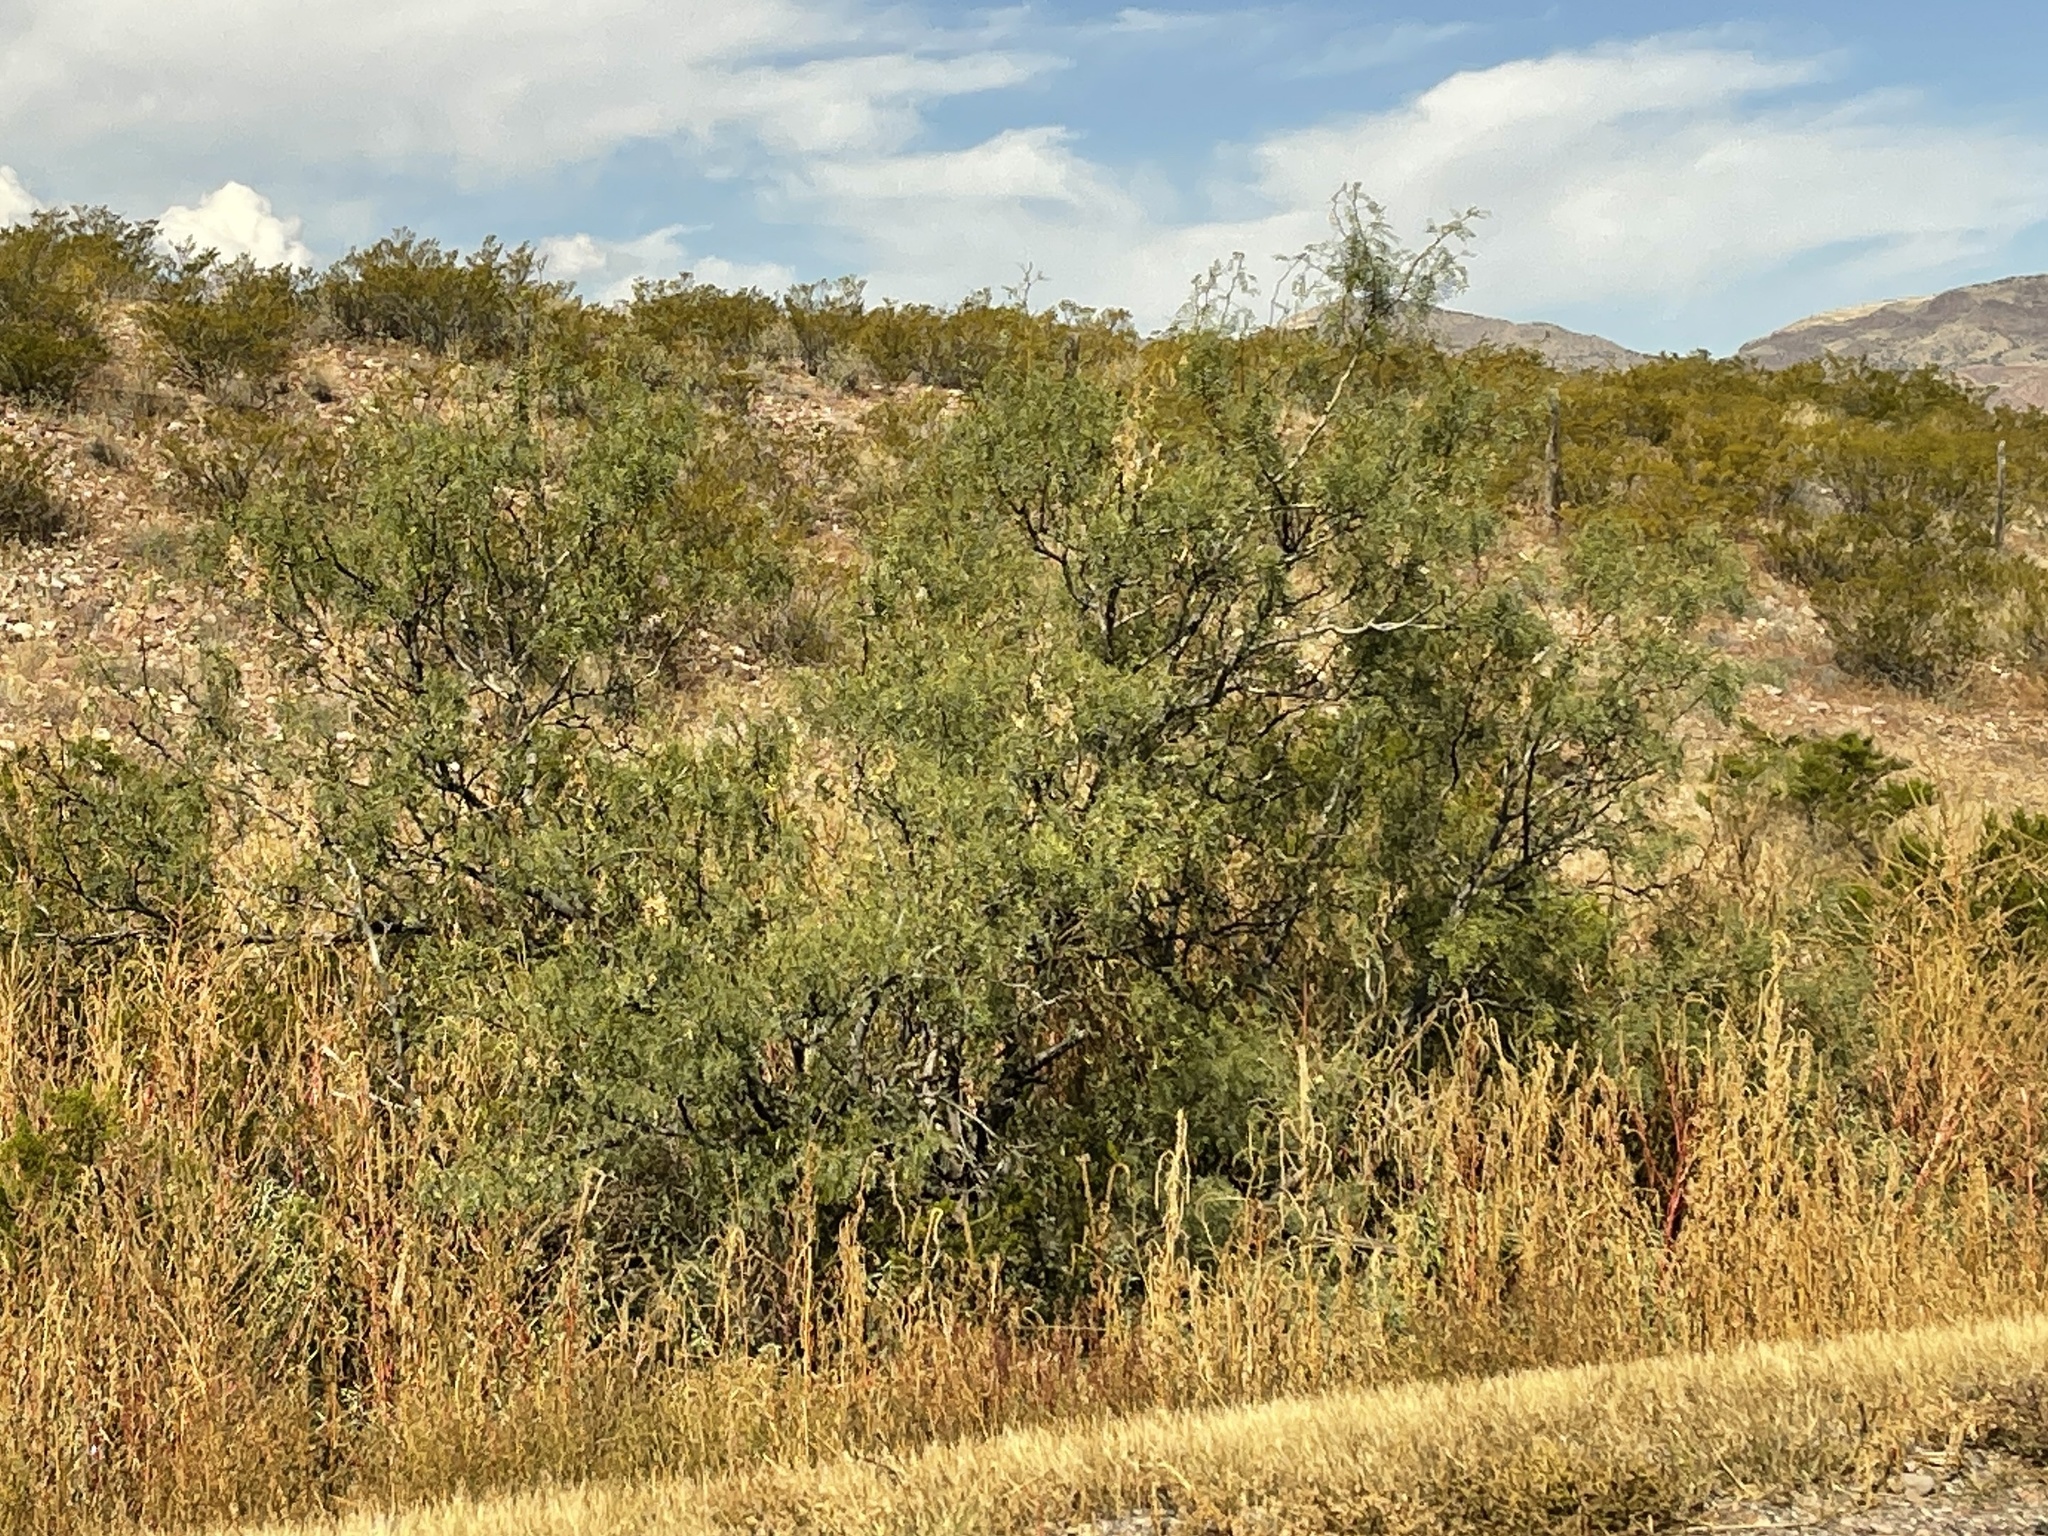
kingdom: Plantae
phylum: Tracheophyta
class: Magnoliopsida
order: Fabales
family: Fabaceae
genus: Prosopis
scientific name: Prosopis glandulosa
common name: Honey mesquite
